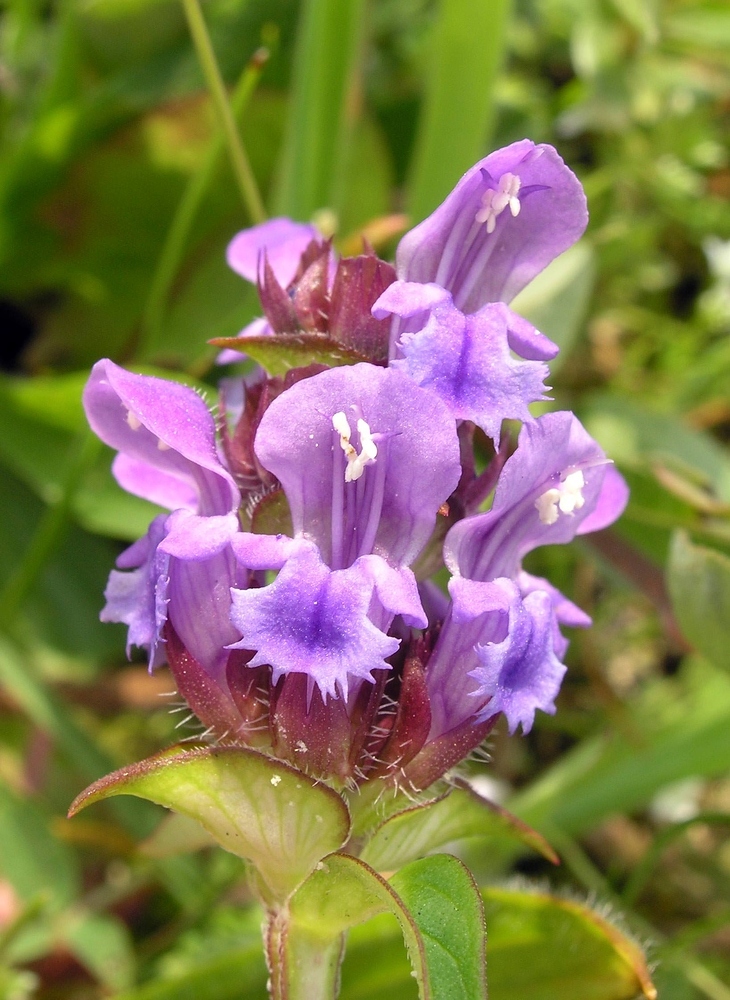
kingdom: Plantae
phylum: Tracheophyta
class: Magnoliopsida
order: Lamiales
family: Lamiaceae
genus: Prunella
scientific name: Prunella grandiflora
